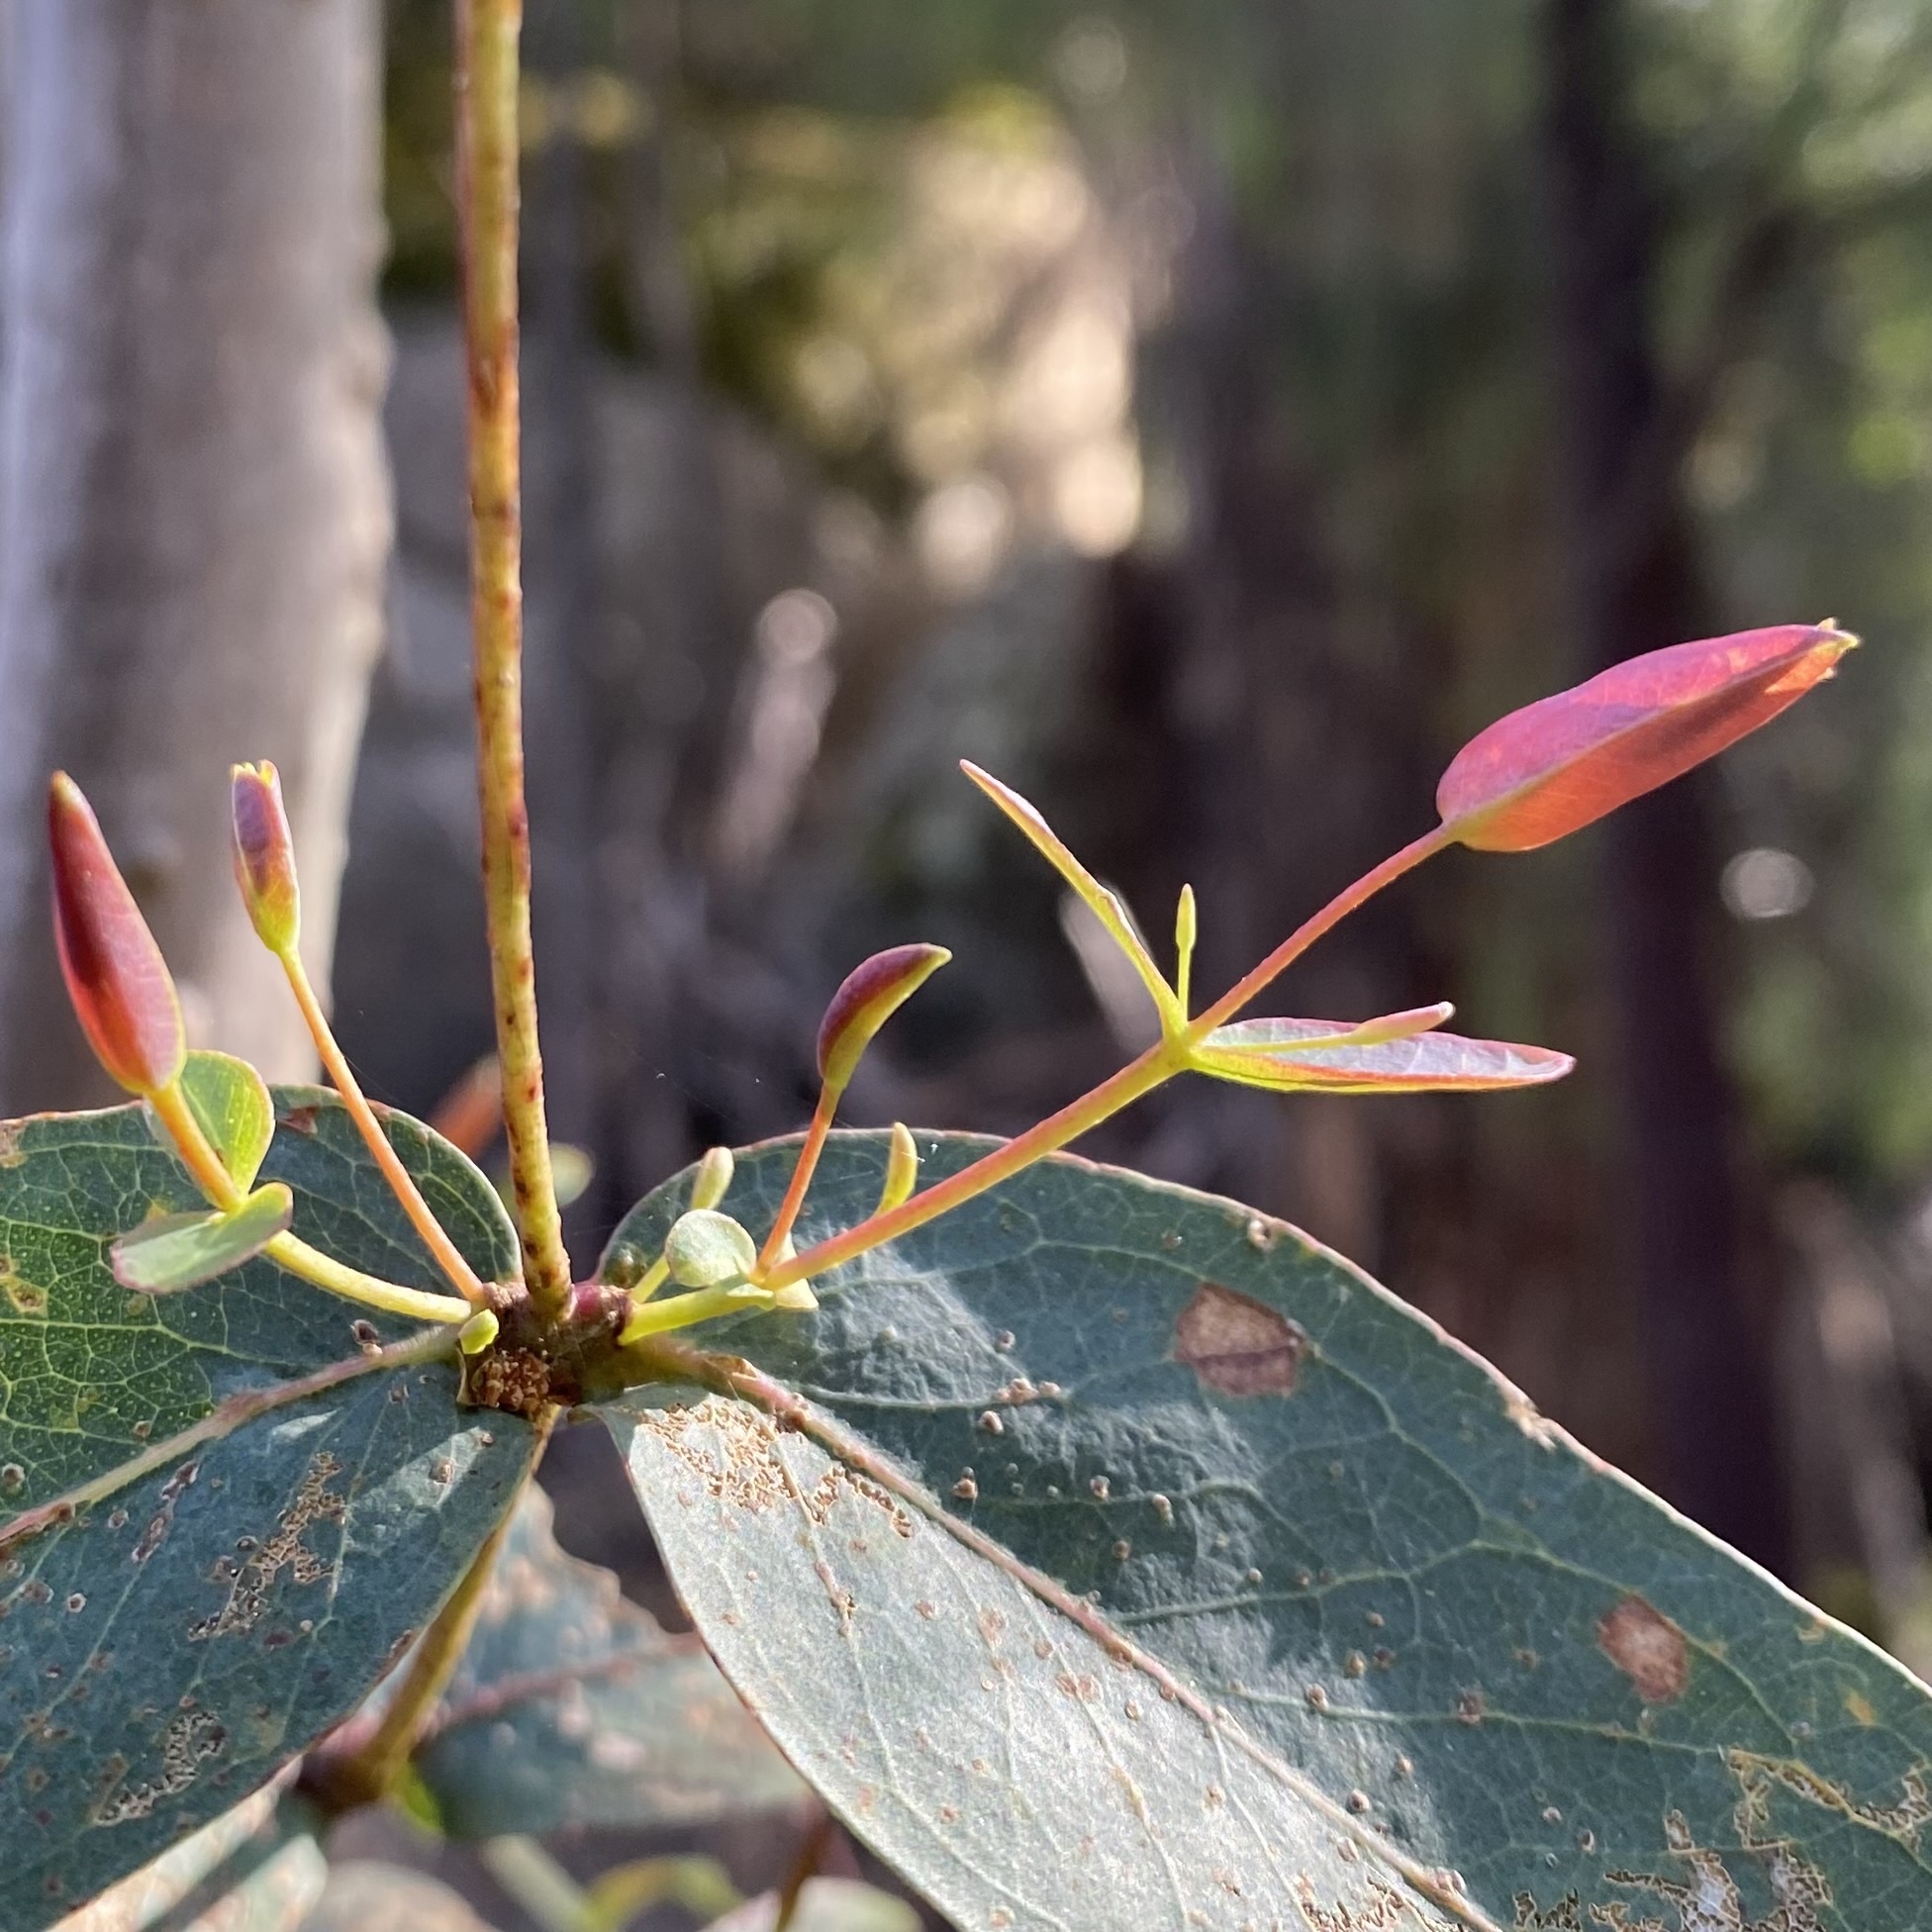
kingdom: Plantae
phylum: Tracheophyta
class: Magnoliopsida
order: Myrtales
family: Myrtaceae
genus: Eucalyptus
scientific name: Eucalyptus
